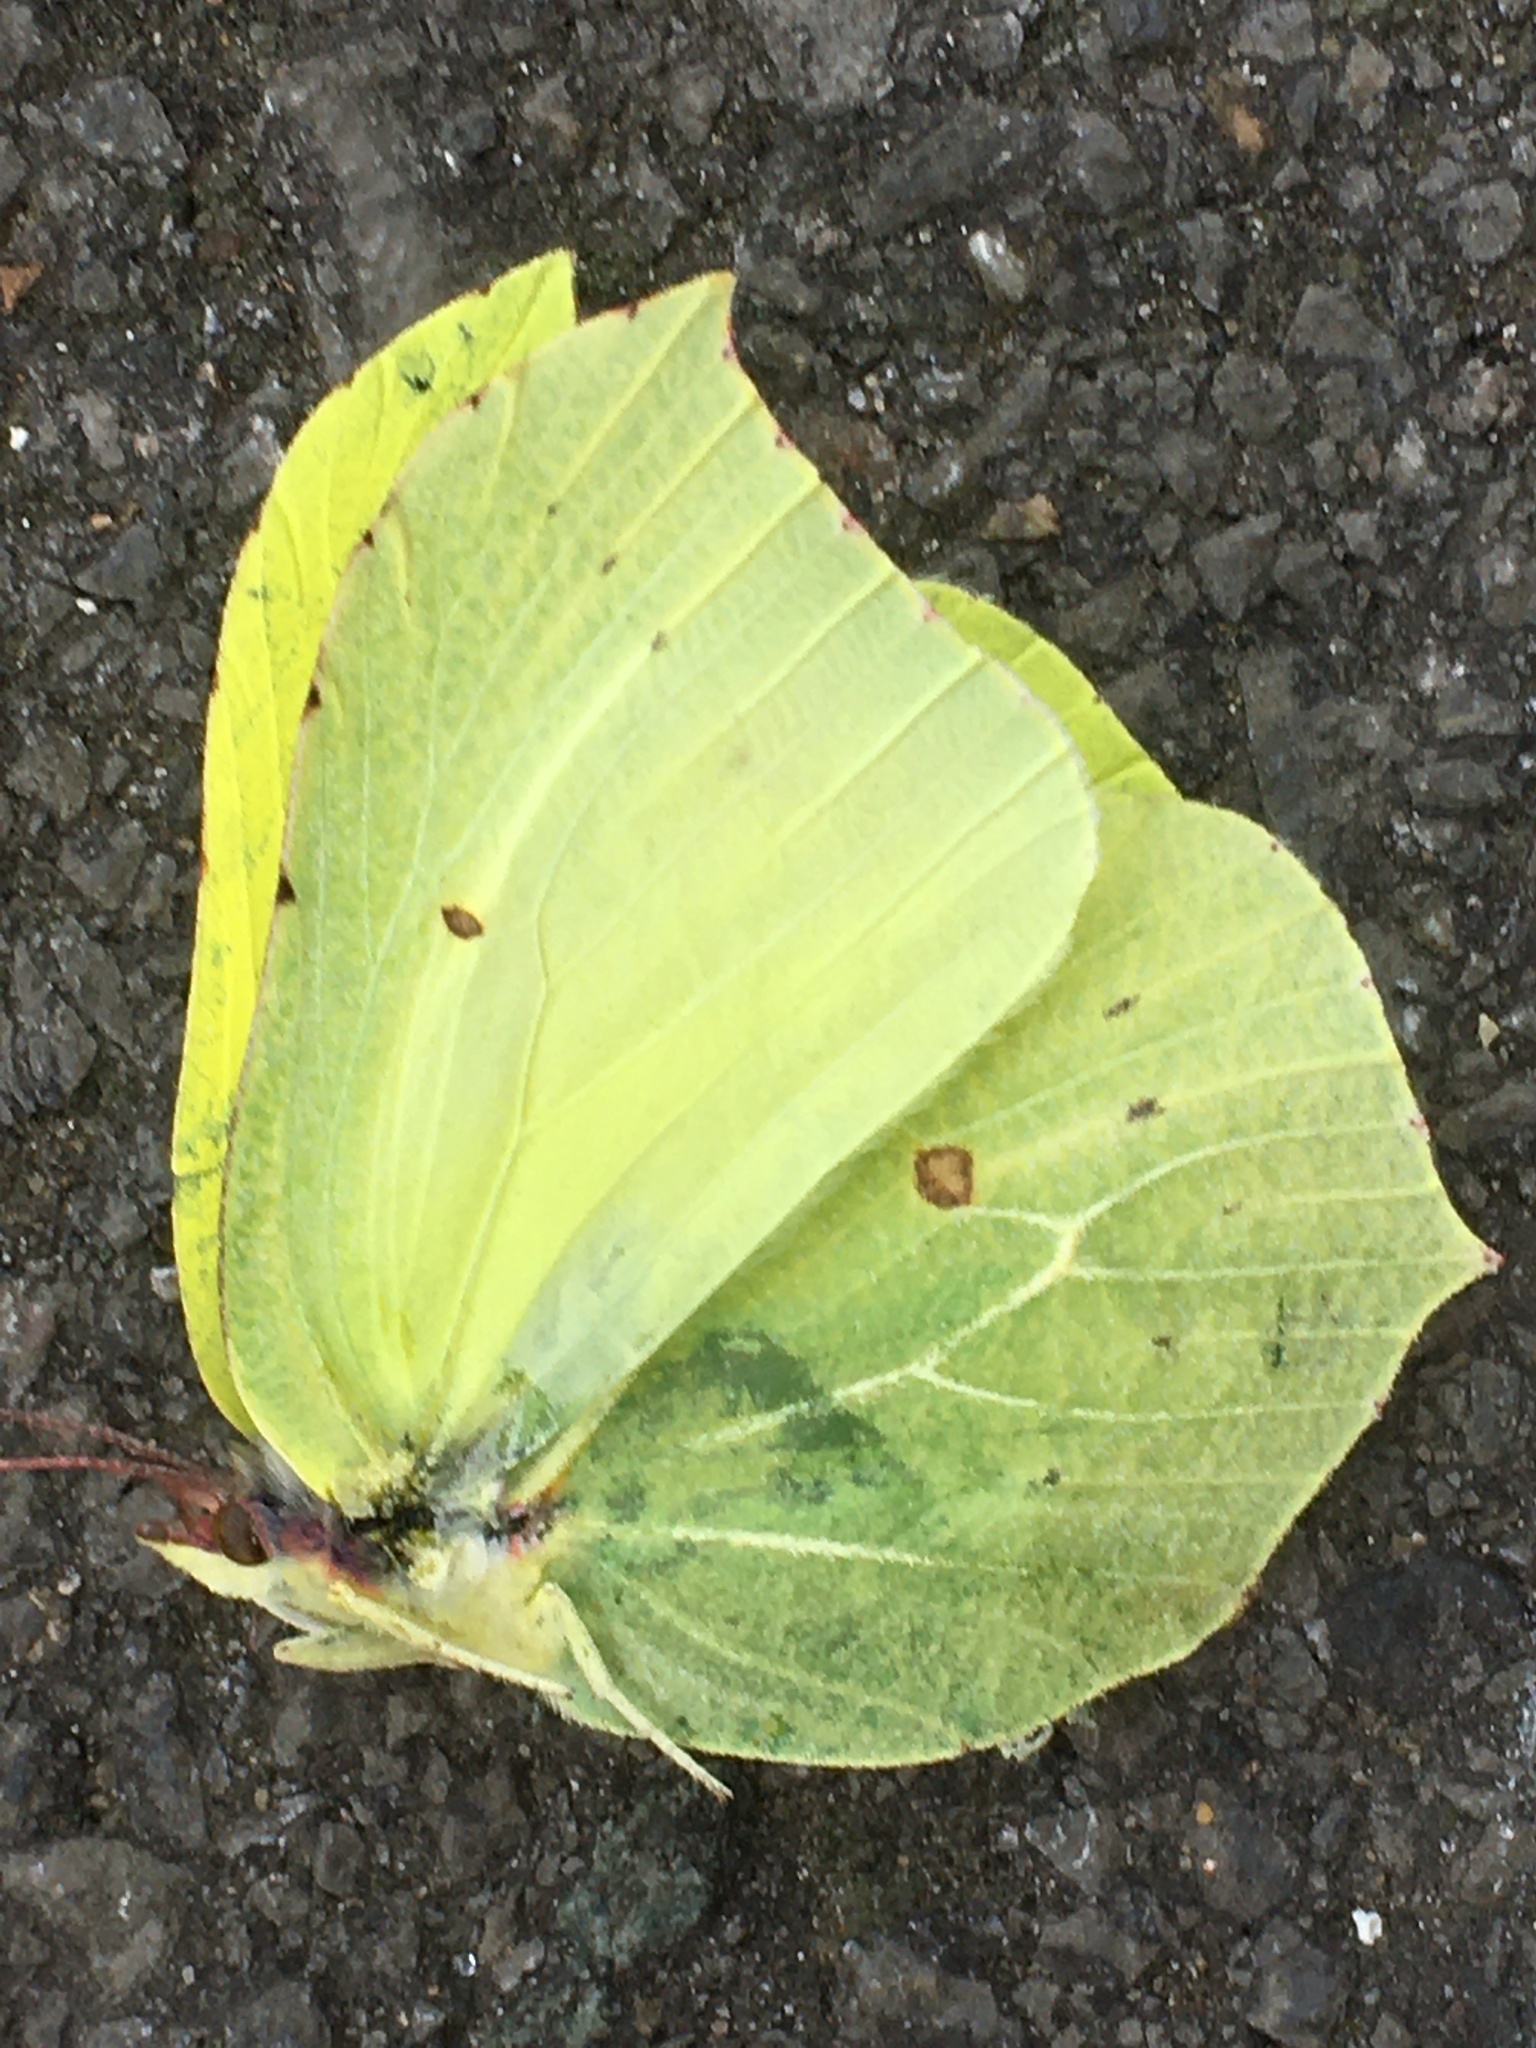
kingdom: Animalia
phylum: Arthropoda
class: Insecta
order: Lepidoptera
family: Pieridae
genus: Gonepteryx
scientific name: Gonepteryx rhamni
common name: Brimstone
